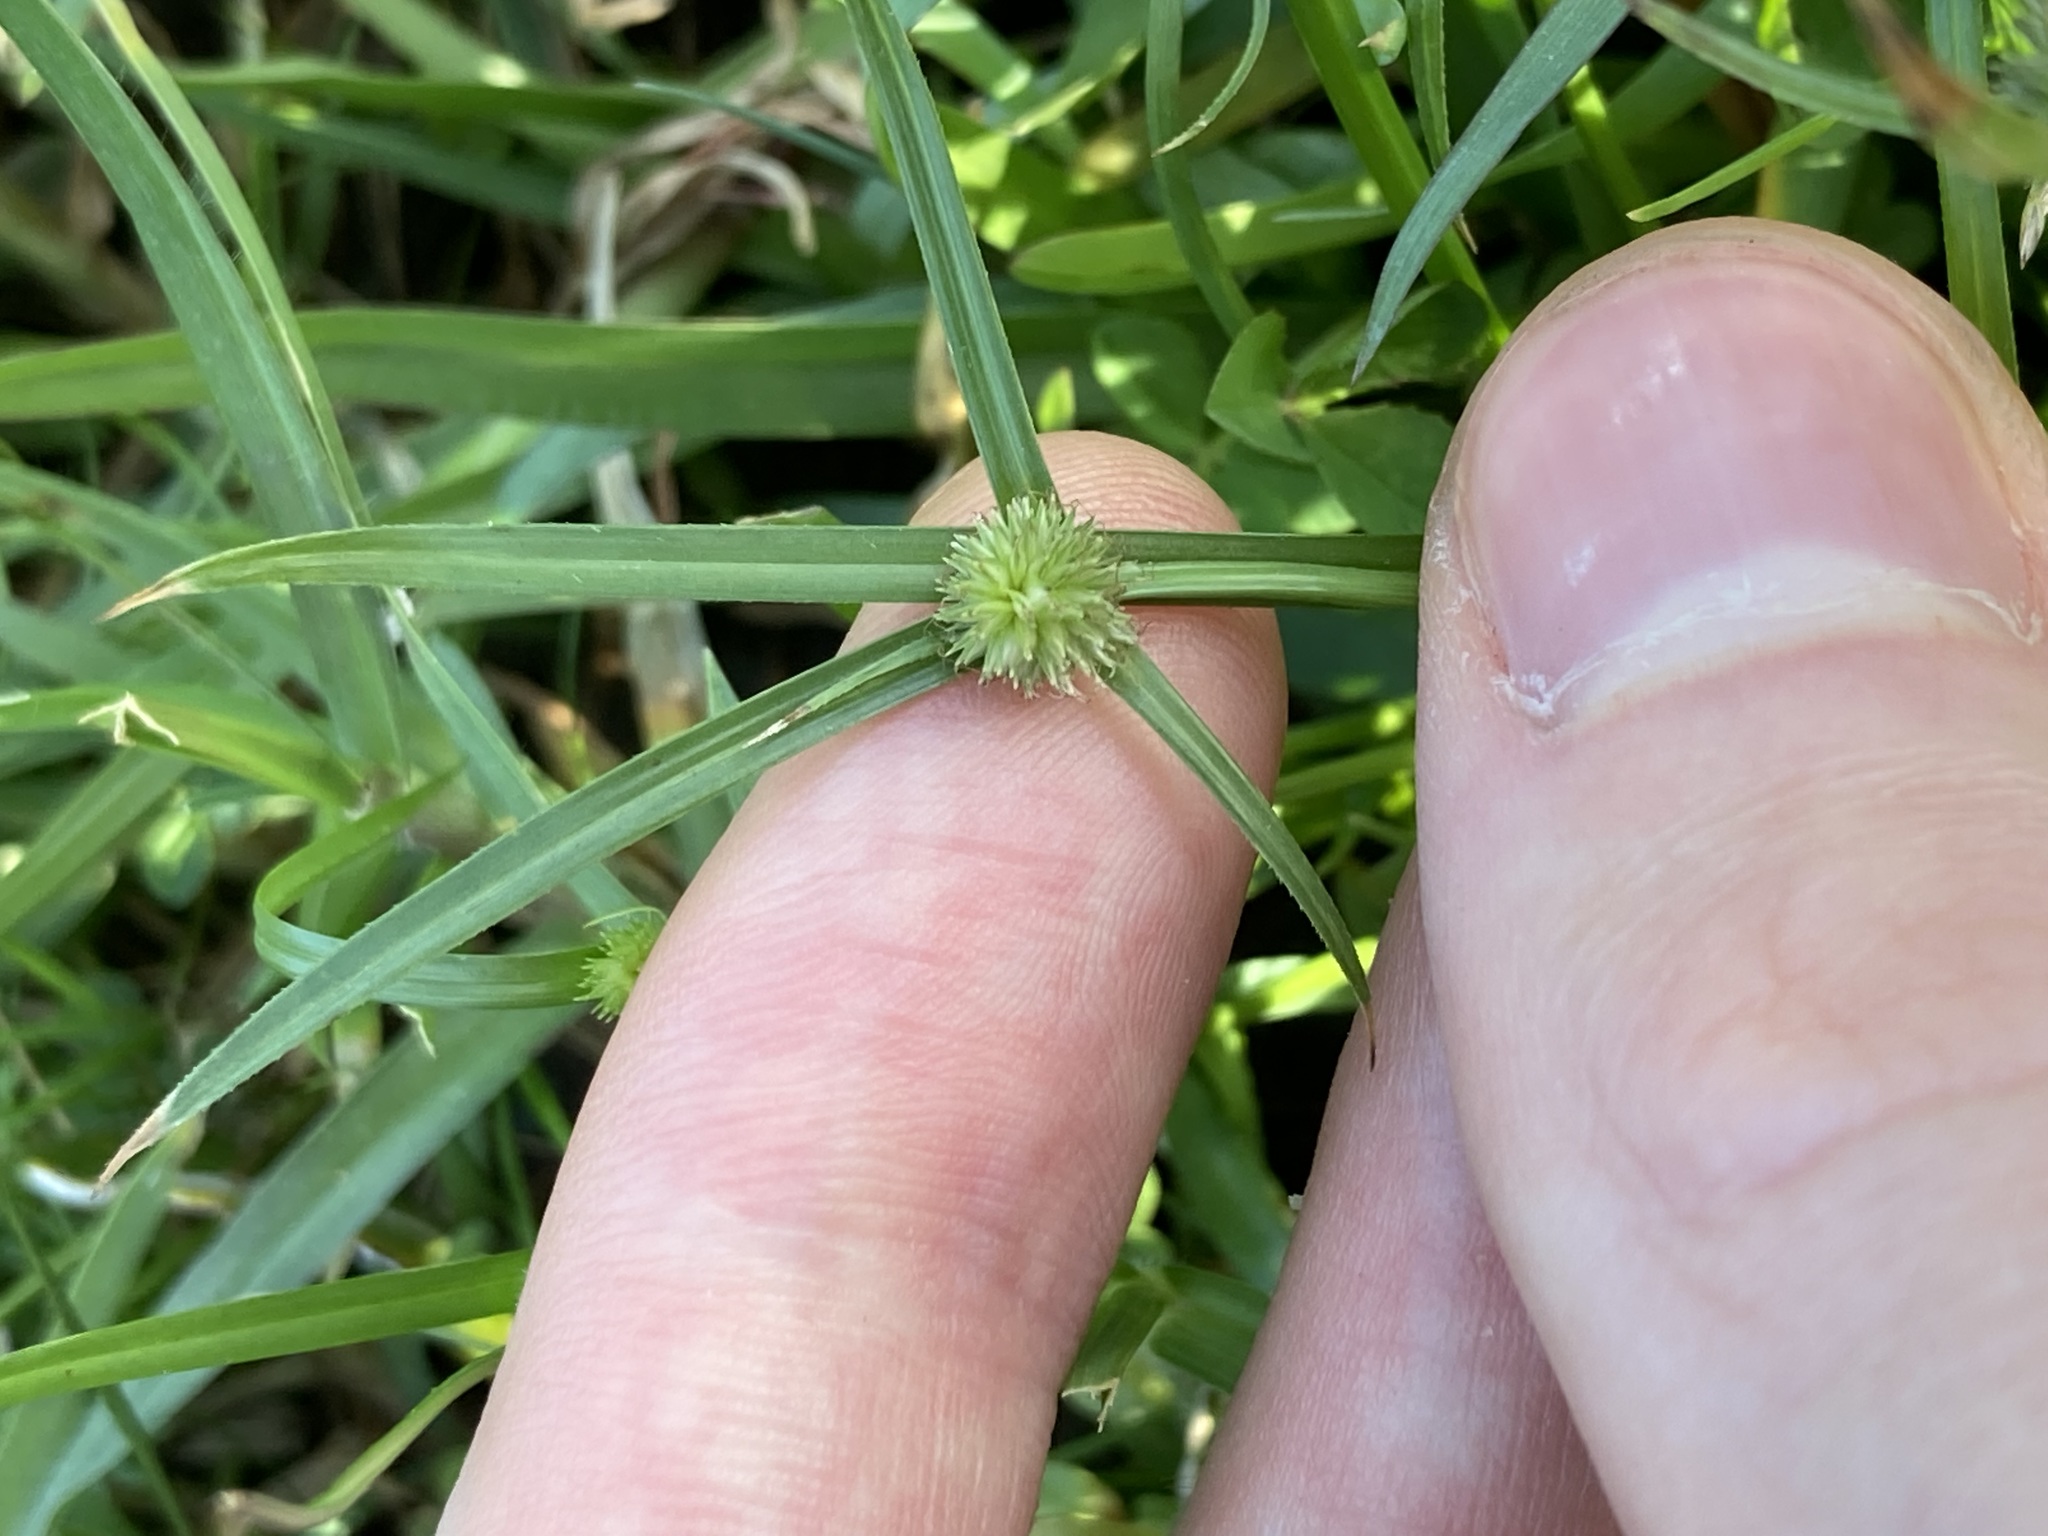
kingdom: Plantae
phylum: Tracheophyta
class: Liliopsida
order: Poales
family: Cyperaceae
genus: Cyperus
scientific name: Cyperus brevifolius
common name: Globe kyllinga
